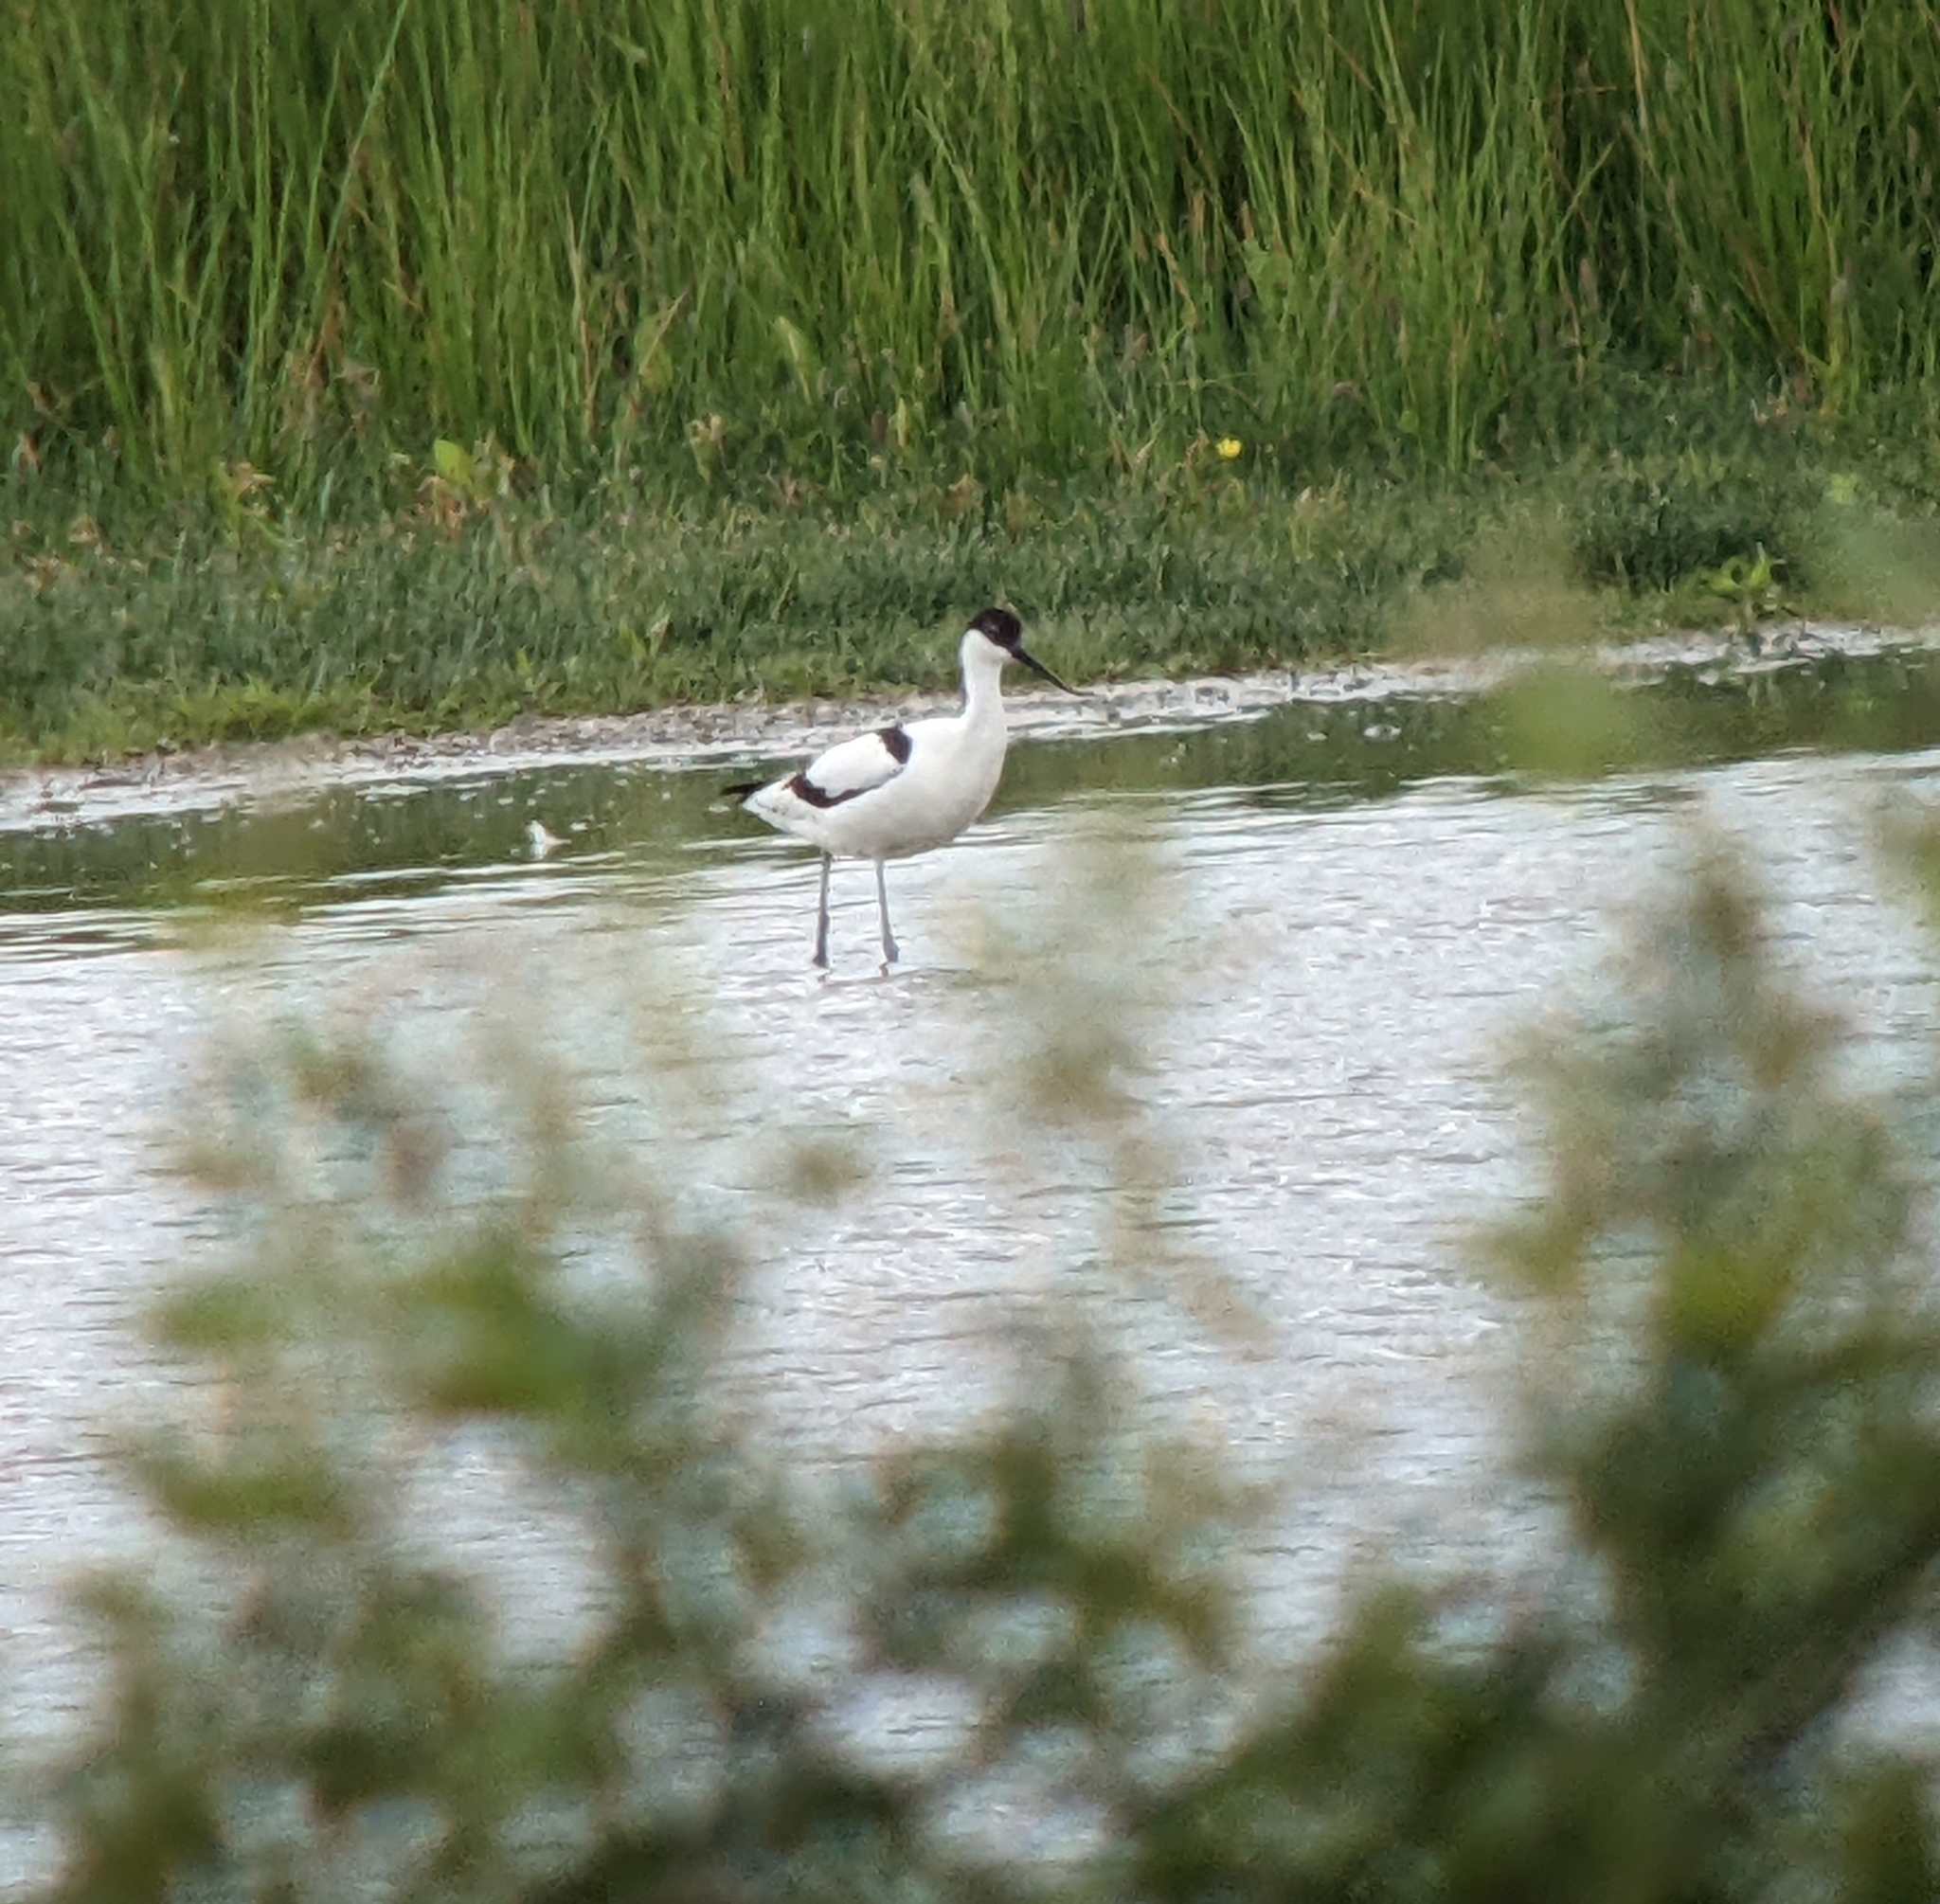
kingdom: Animalia
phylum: Chordata
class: Aves
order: Charadriiformes
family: Recurvirostridae
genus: Recurvirostra
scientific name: Recurvirostra avosetta
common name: Pied avocet
